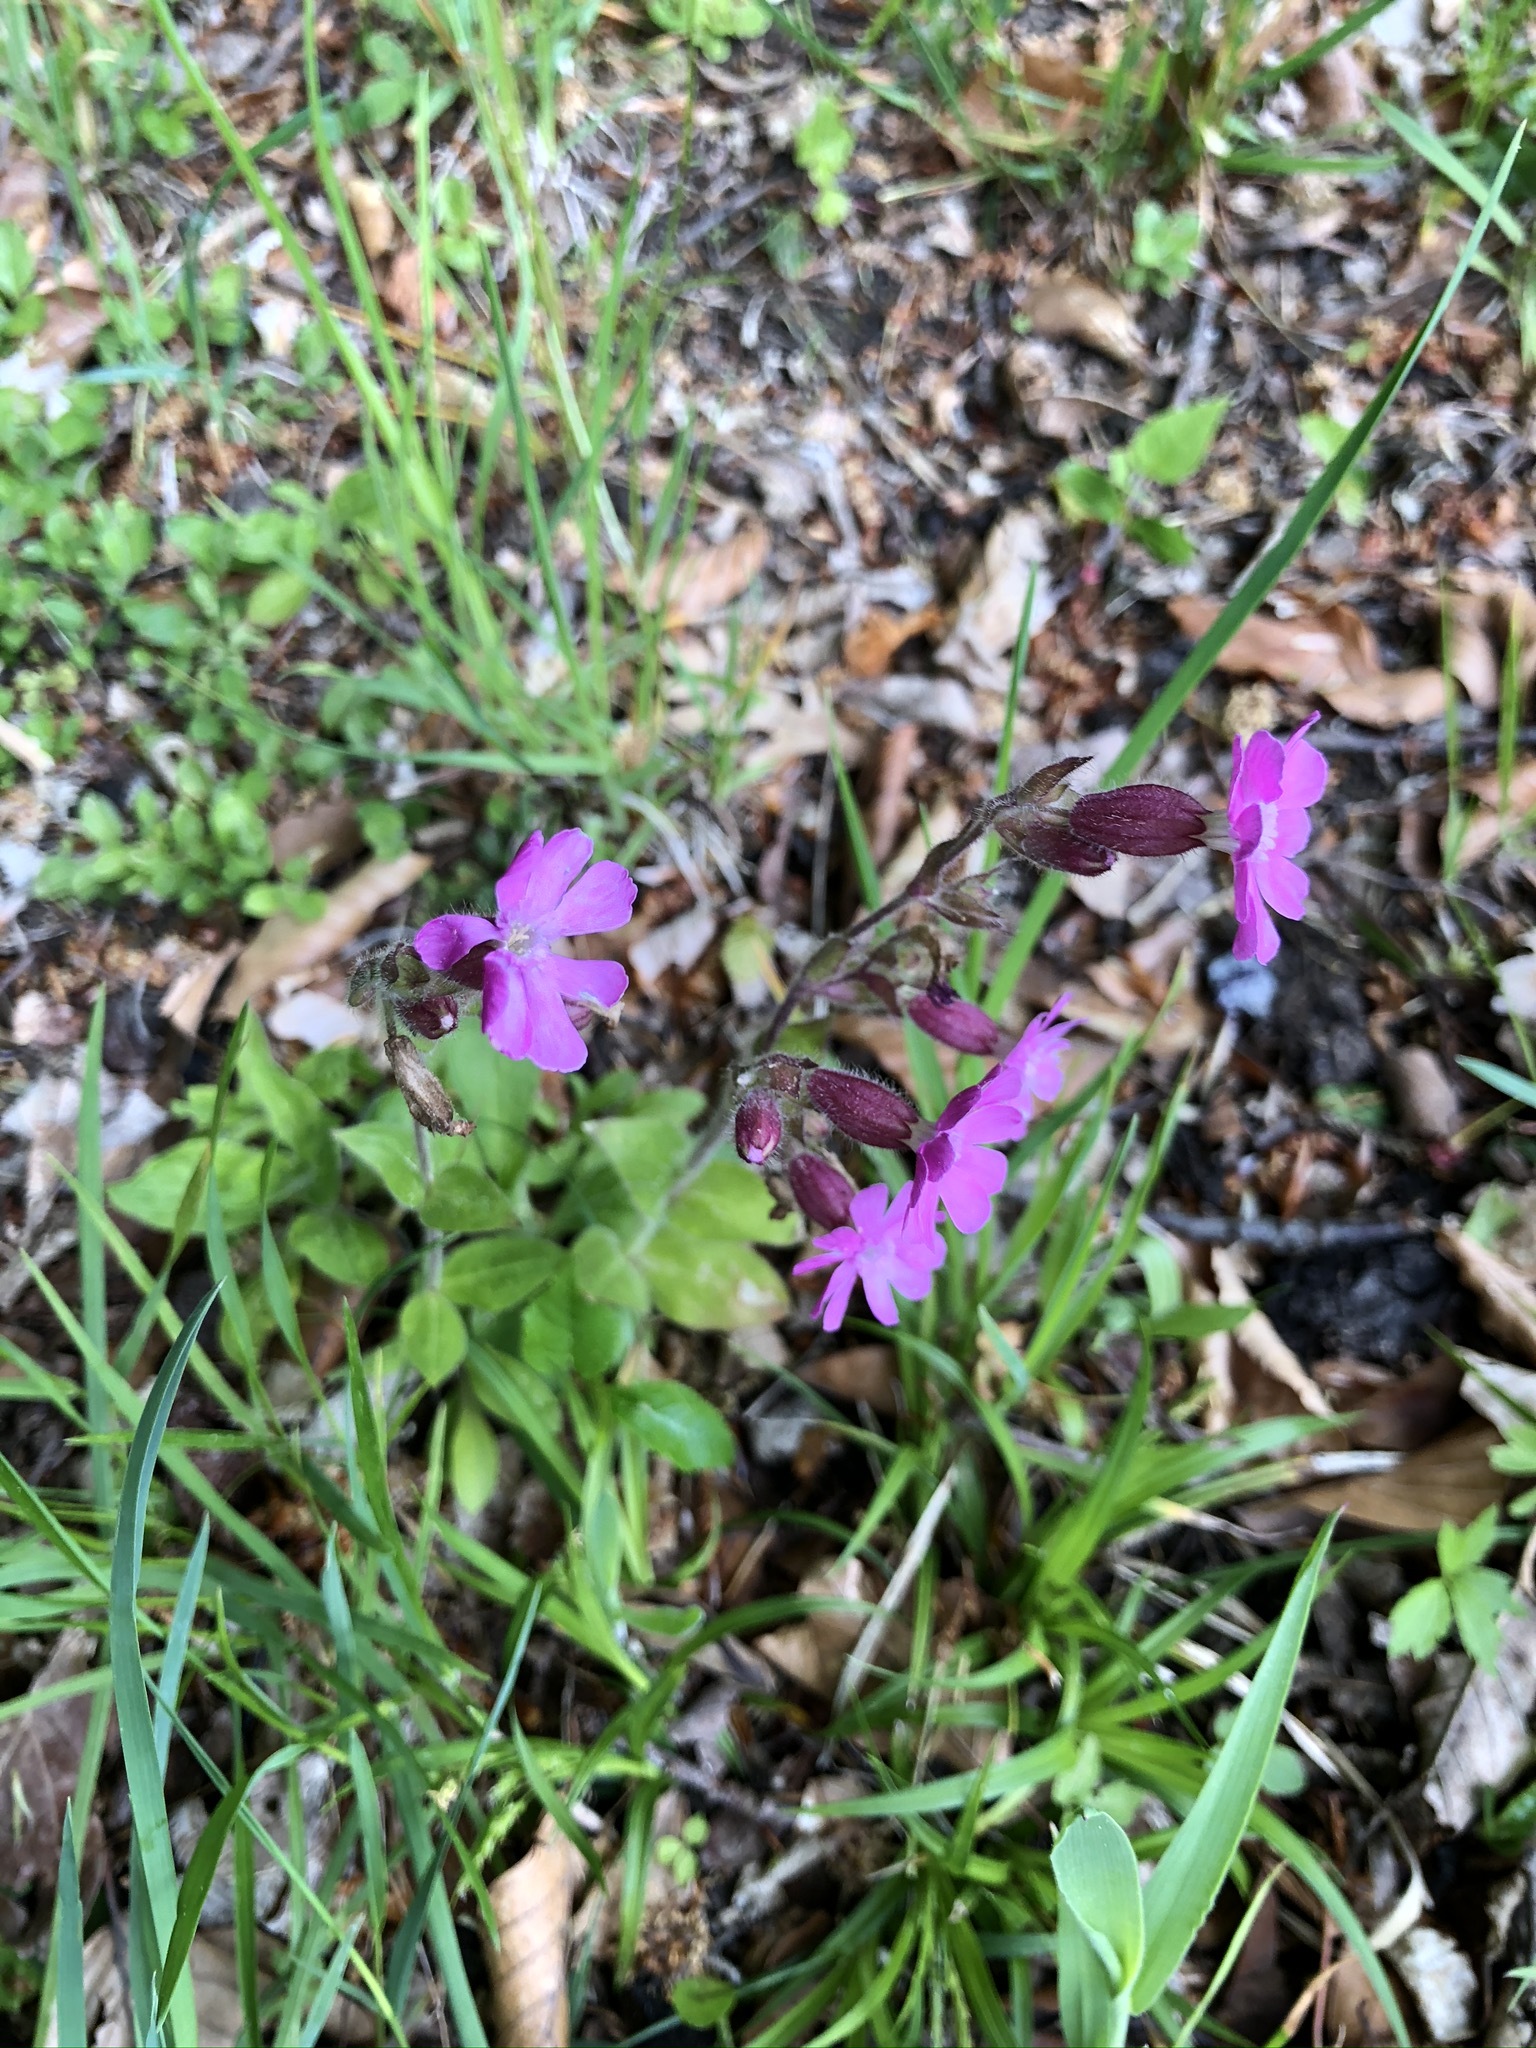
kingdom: Plantae
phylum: Tracheophyta
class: Magnoliopsida
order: Caryophyllales
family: Caryophyllaceae
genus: Silene
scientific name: Silene dioica
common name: Red campion
